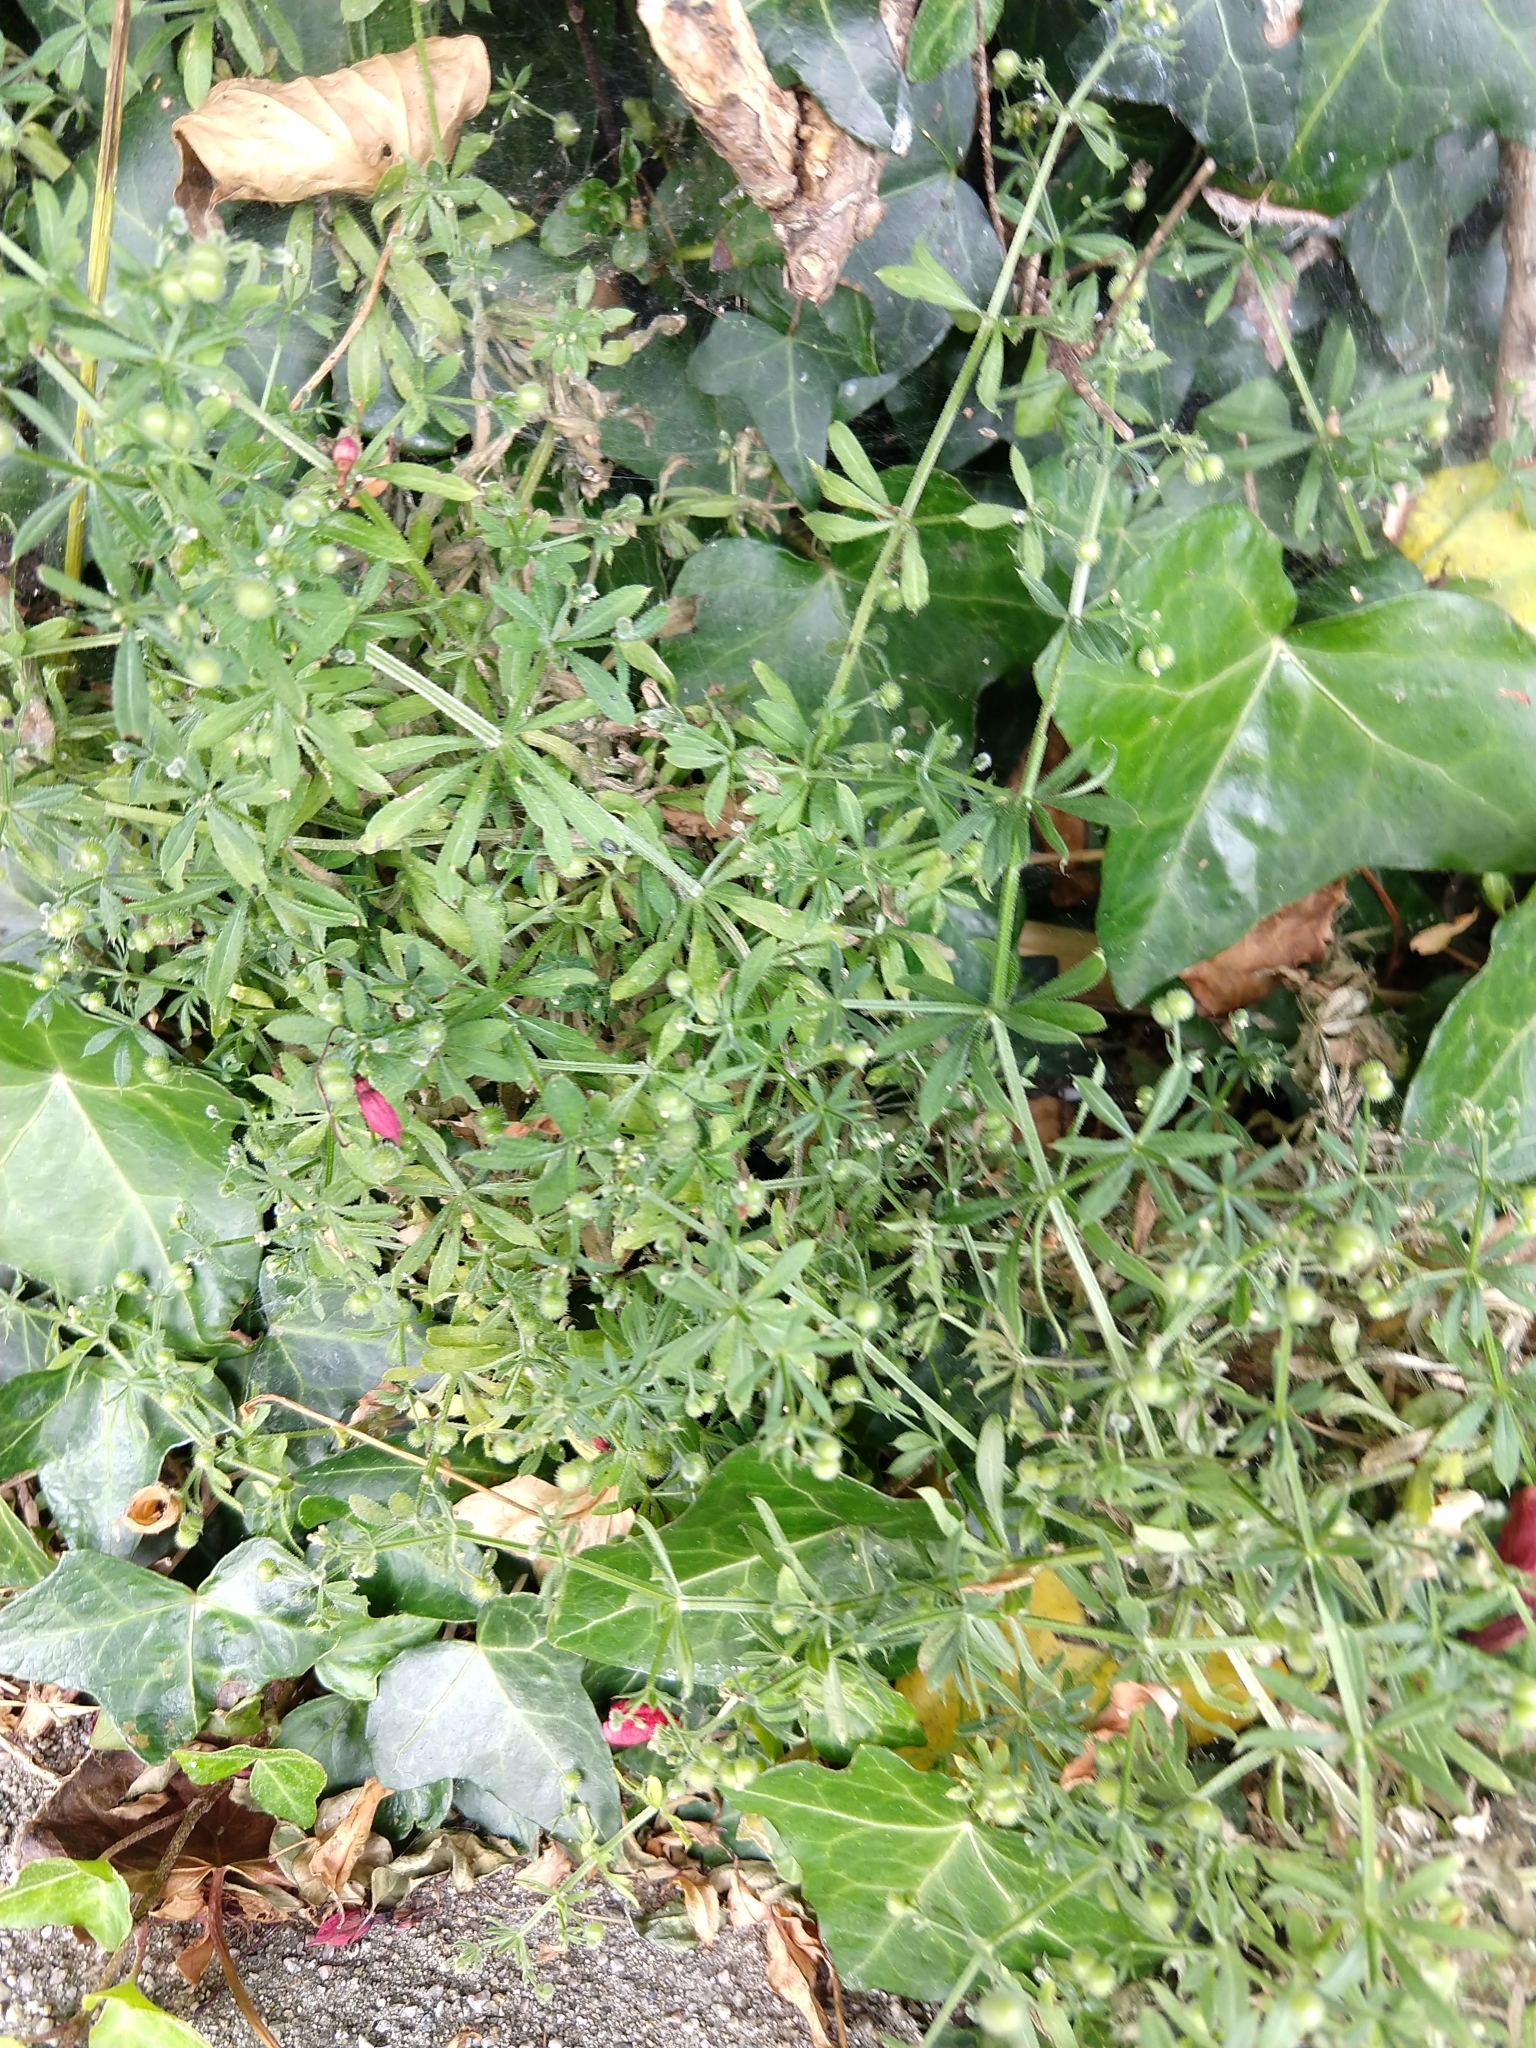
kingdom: Plantae
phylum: Tracheophyta
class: Magnoliopsida
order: Gentianales
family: Rubiaceae
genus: Galium
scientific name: Galium aparine
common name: Cleavers
